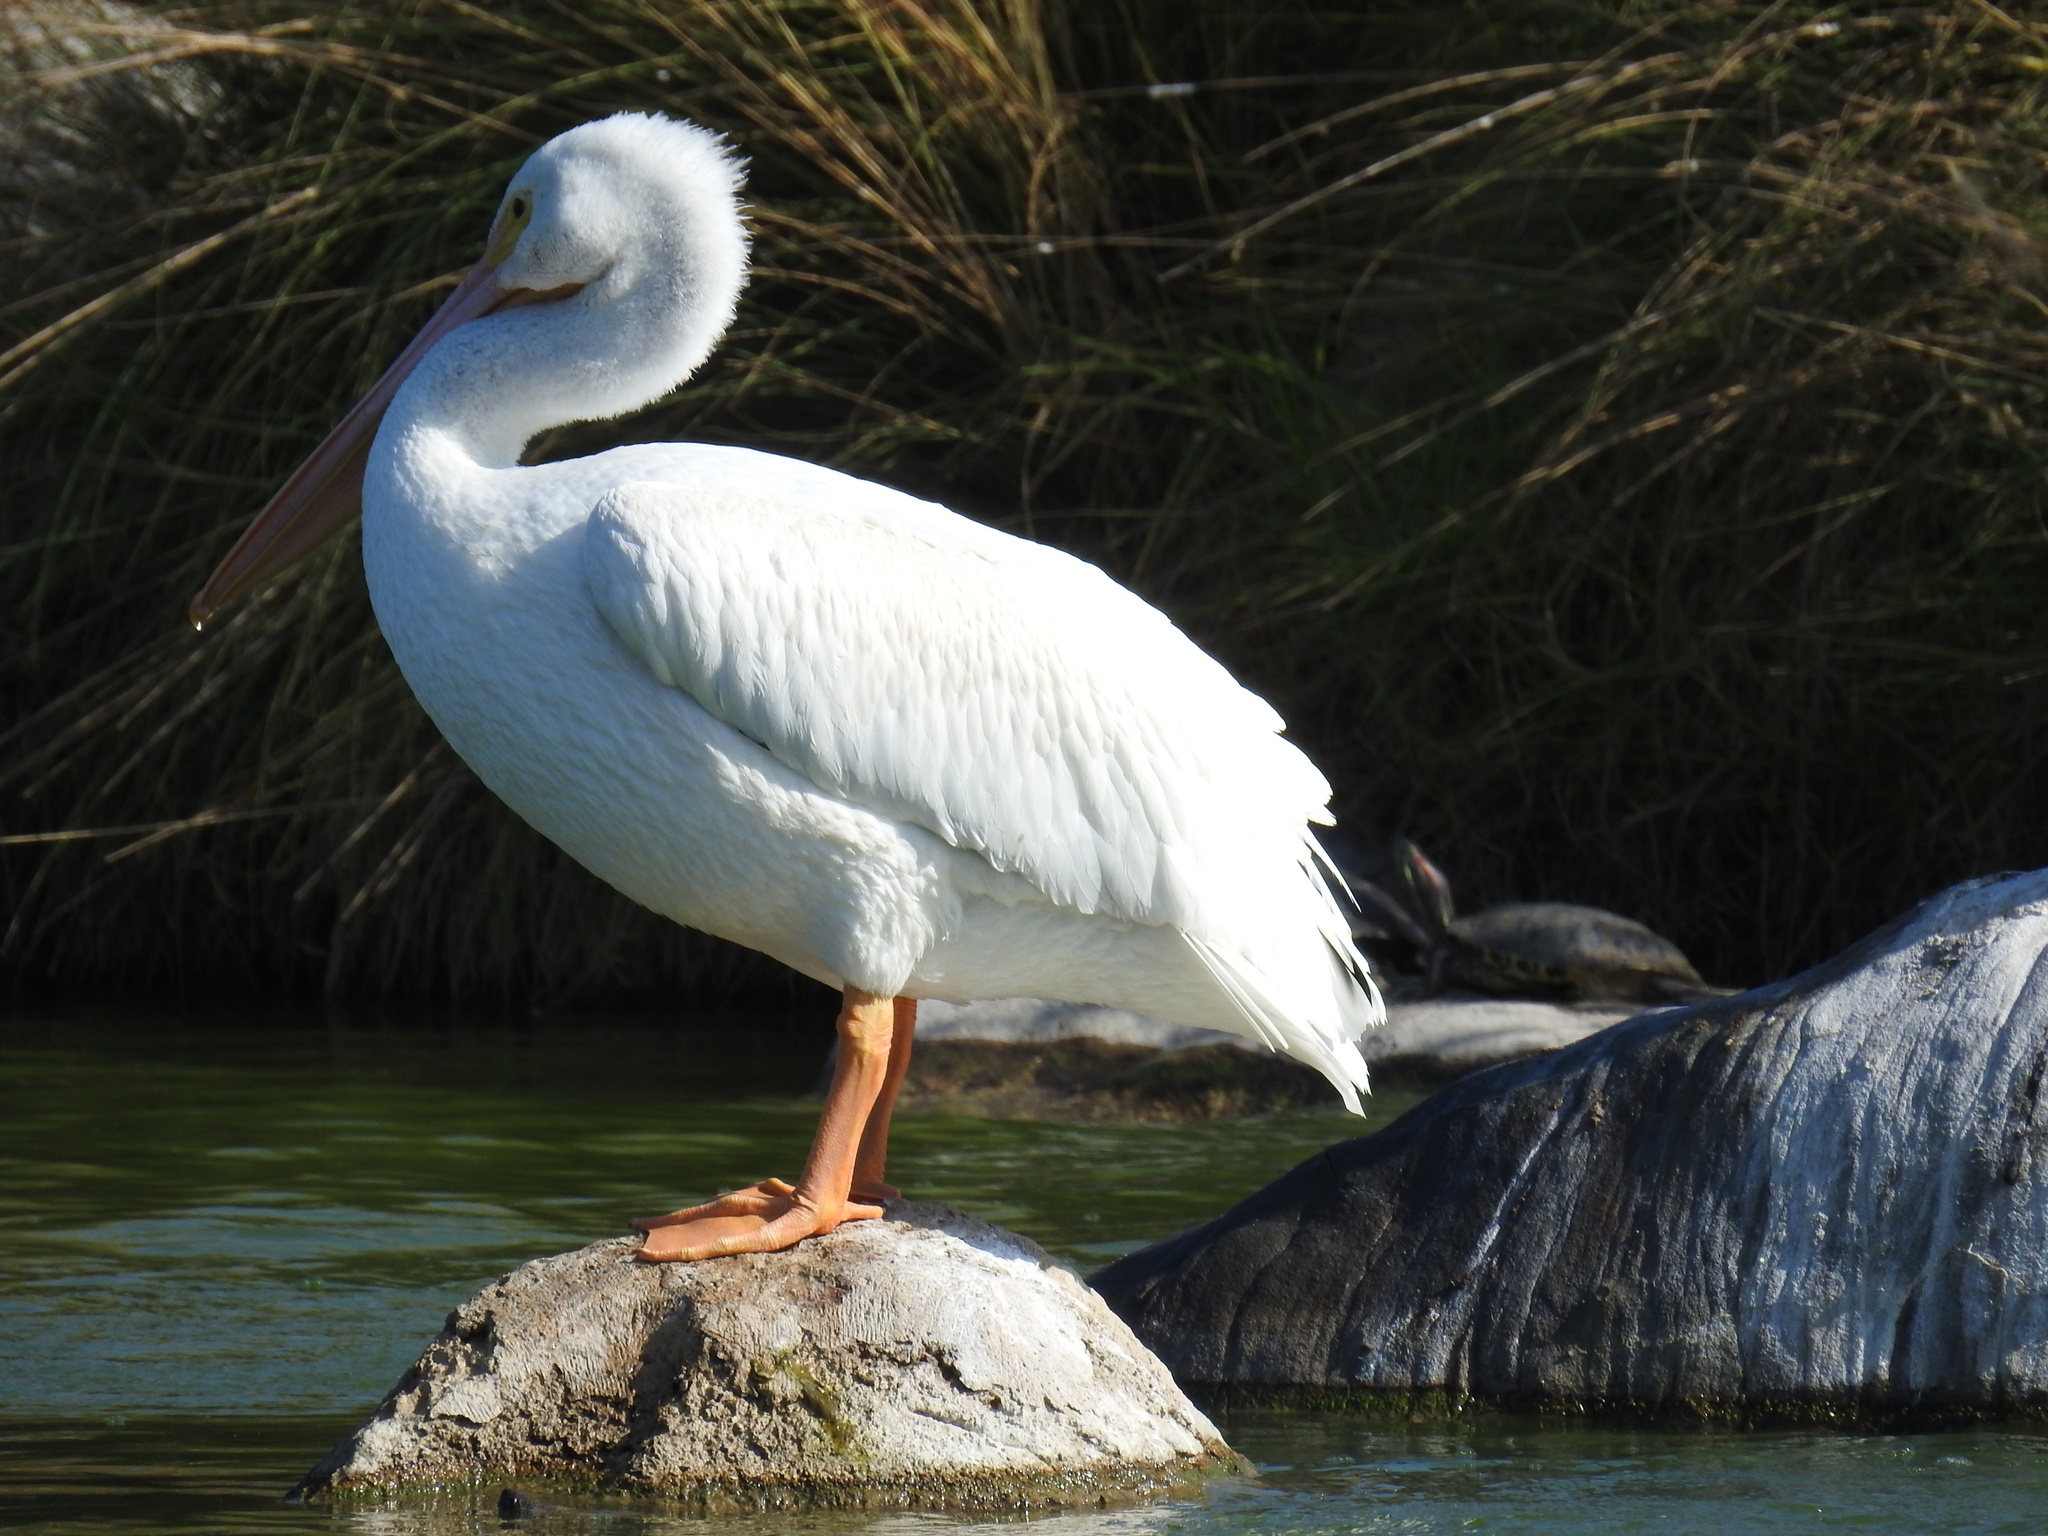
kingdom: Animalia
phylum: Chordata
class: Aves
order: Pelecaniformes
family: Pelecanidae
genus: Pelecanus
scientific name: Pelecanus erythrorhynchos
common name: American white pelican
